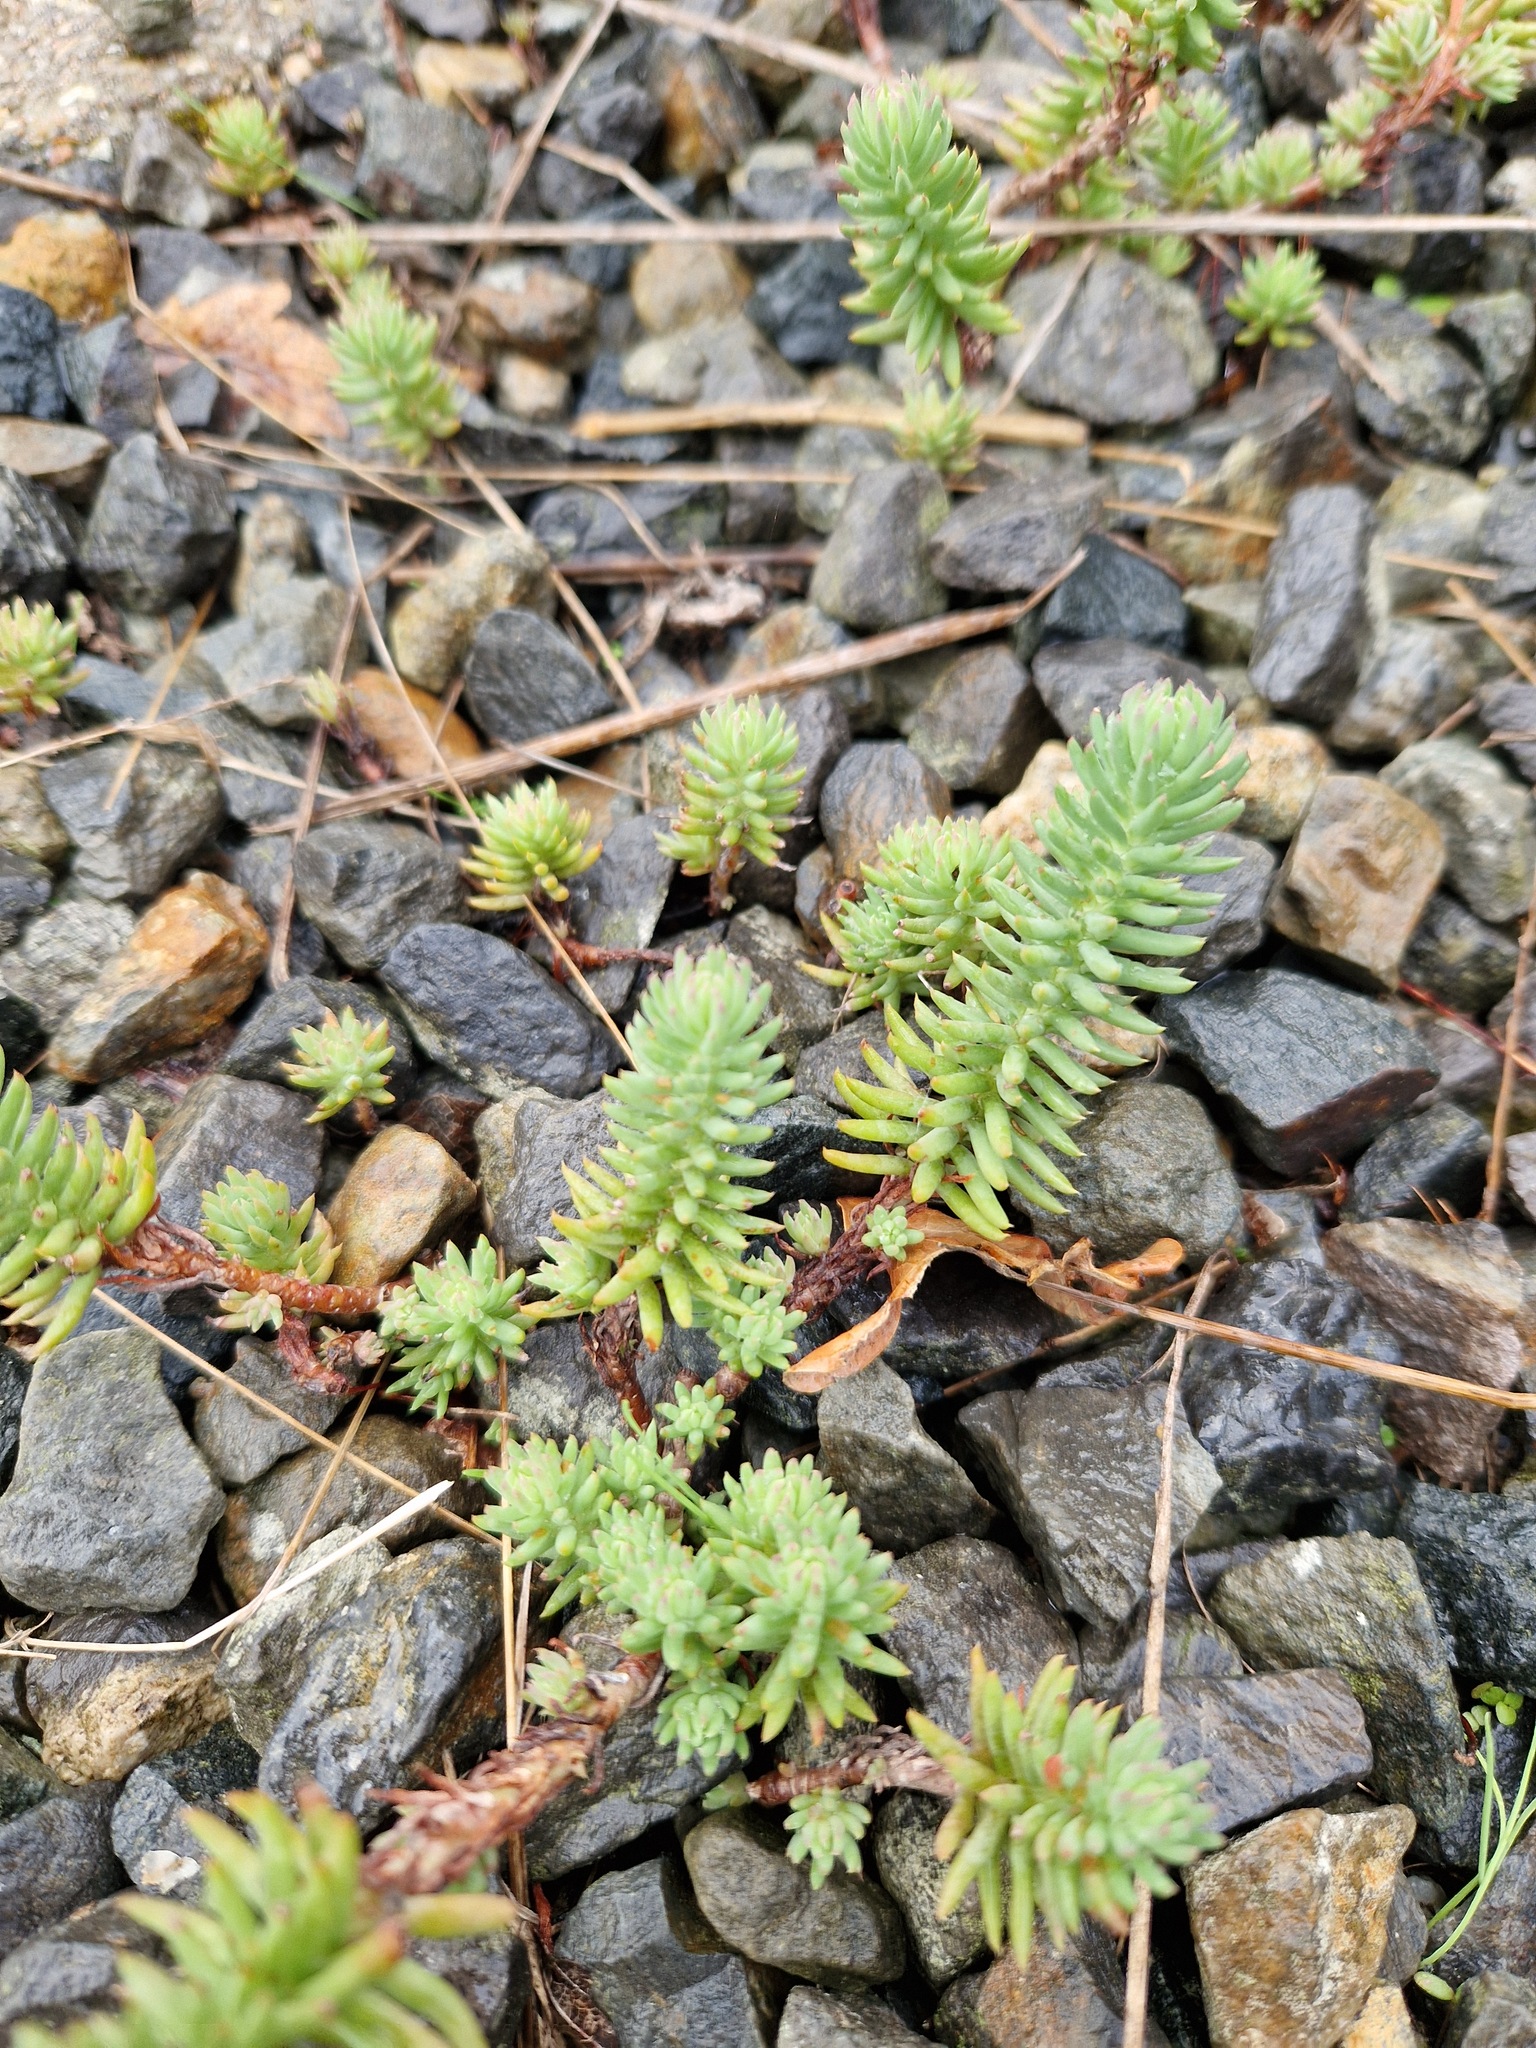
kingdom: Plantae
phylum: Tracheophyta
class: Magnoliopsida
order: Saxifragales
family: Crassulaceae
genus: Petrosedum
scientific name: Petrosedum rupestre
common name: Jenny's stonecrop
